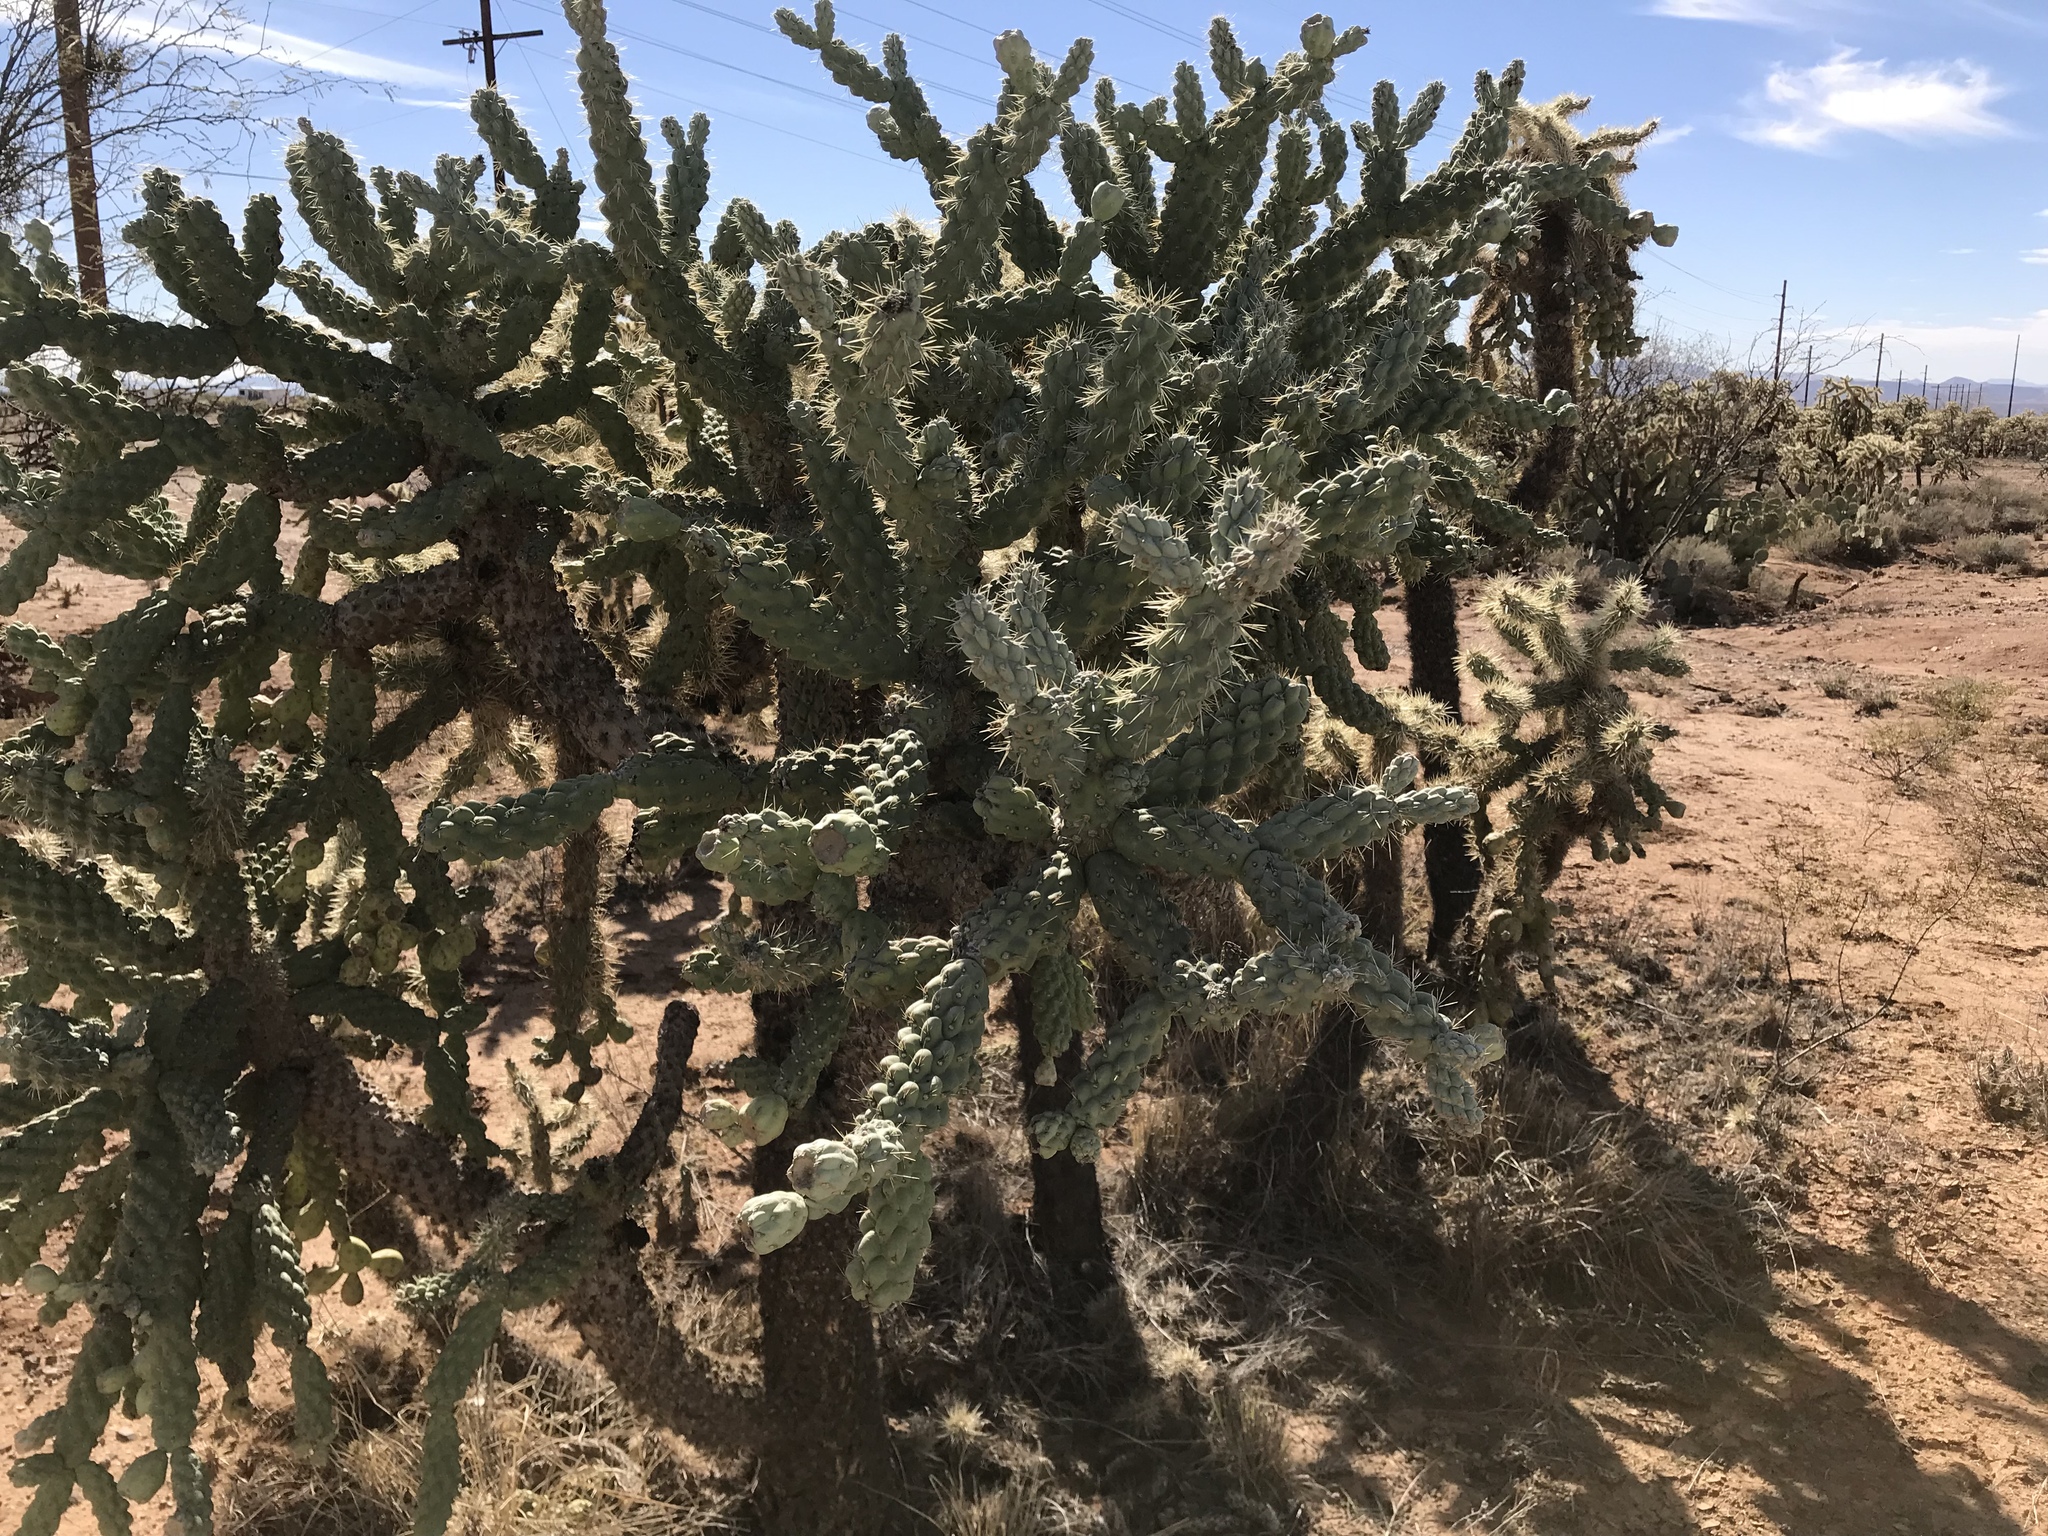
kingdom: Plantae
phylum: Tracheophyta
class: Magnoliopsida
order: Caryophyllales
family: Cactaceae
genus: Cylindropuntia
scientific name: Cylindropuntia fulgida
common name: Jumping cholla
